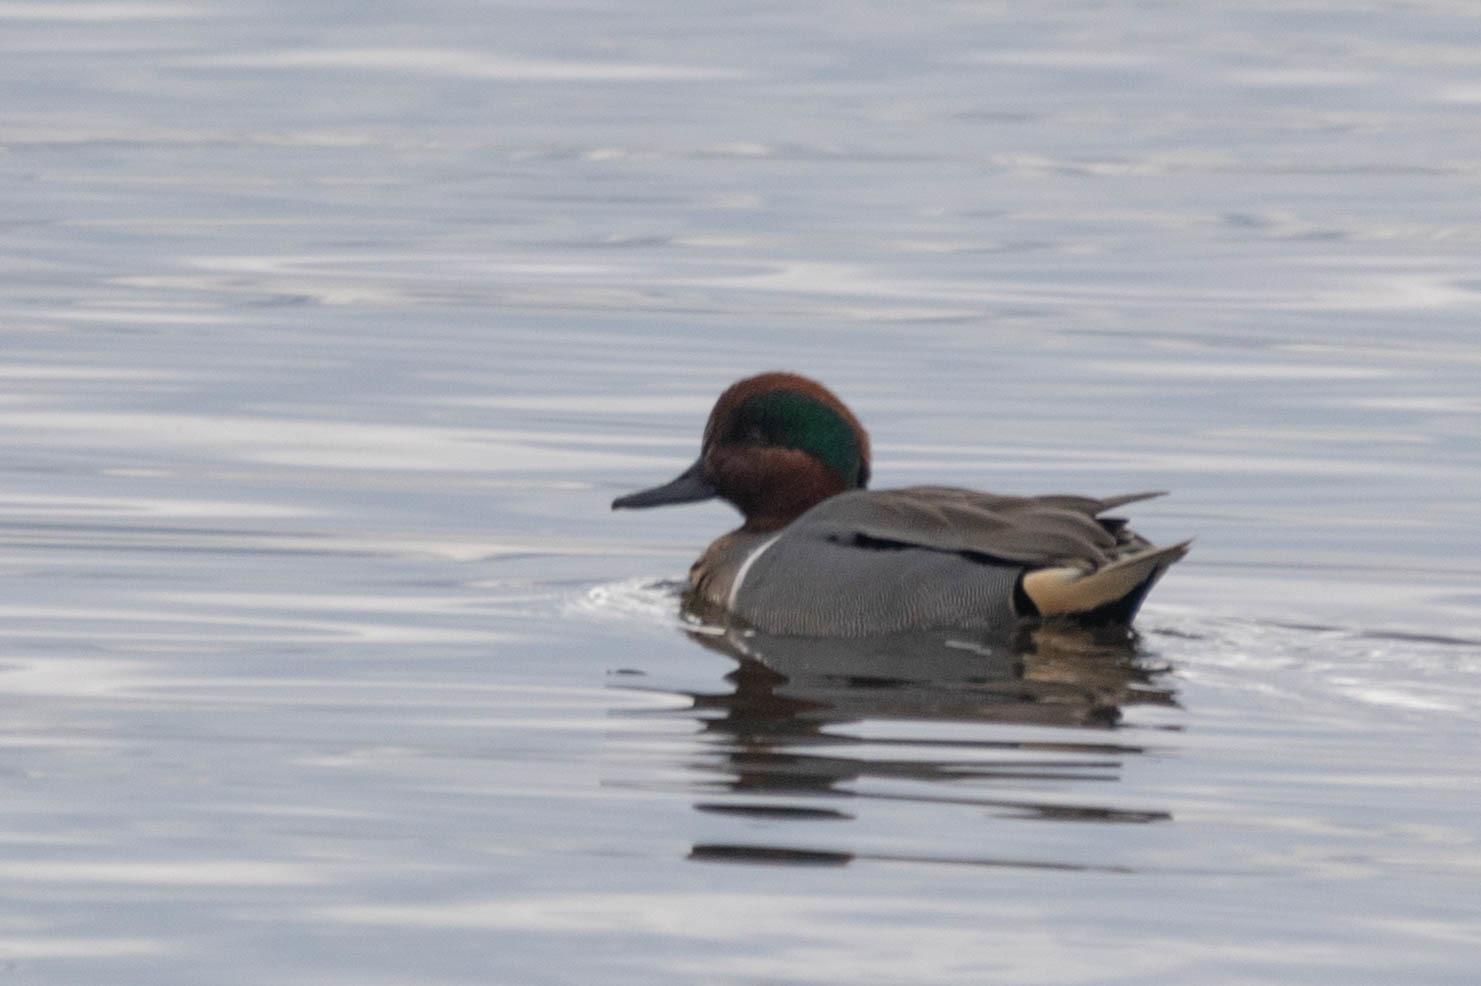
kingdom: Animalia
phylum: Chordata
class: Aves
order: Anseriformes
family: Anatidae
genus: Anas
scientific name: Anas carolinensis
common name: Green-winged teal
